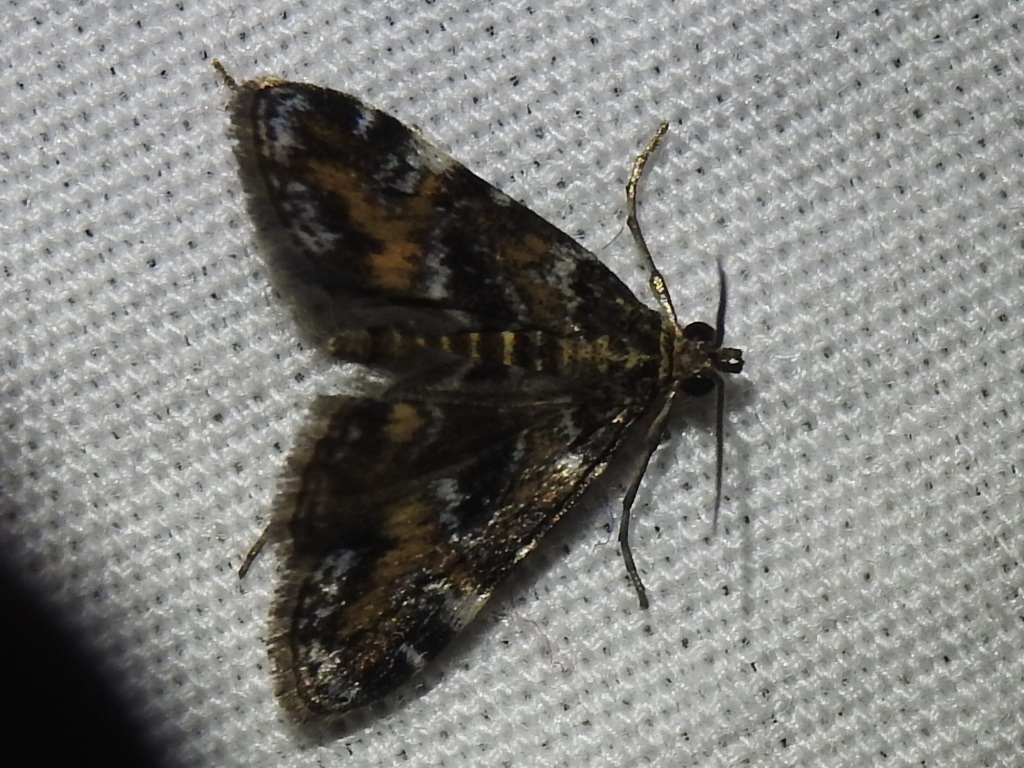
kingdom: Animalia
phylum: Arthropoda
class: Insecta
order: Lepidoptera
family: Crambidae
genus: Elophila
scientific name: Elophila obliteralis
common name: Waterlily leafcutter moth
